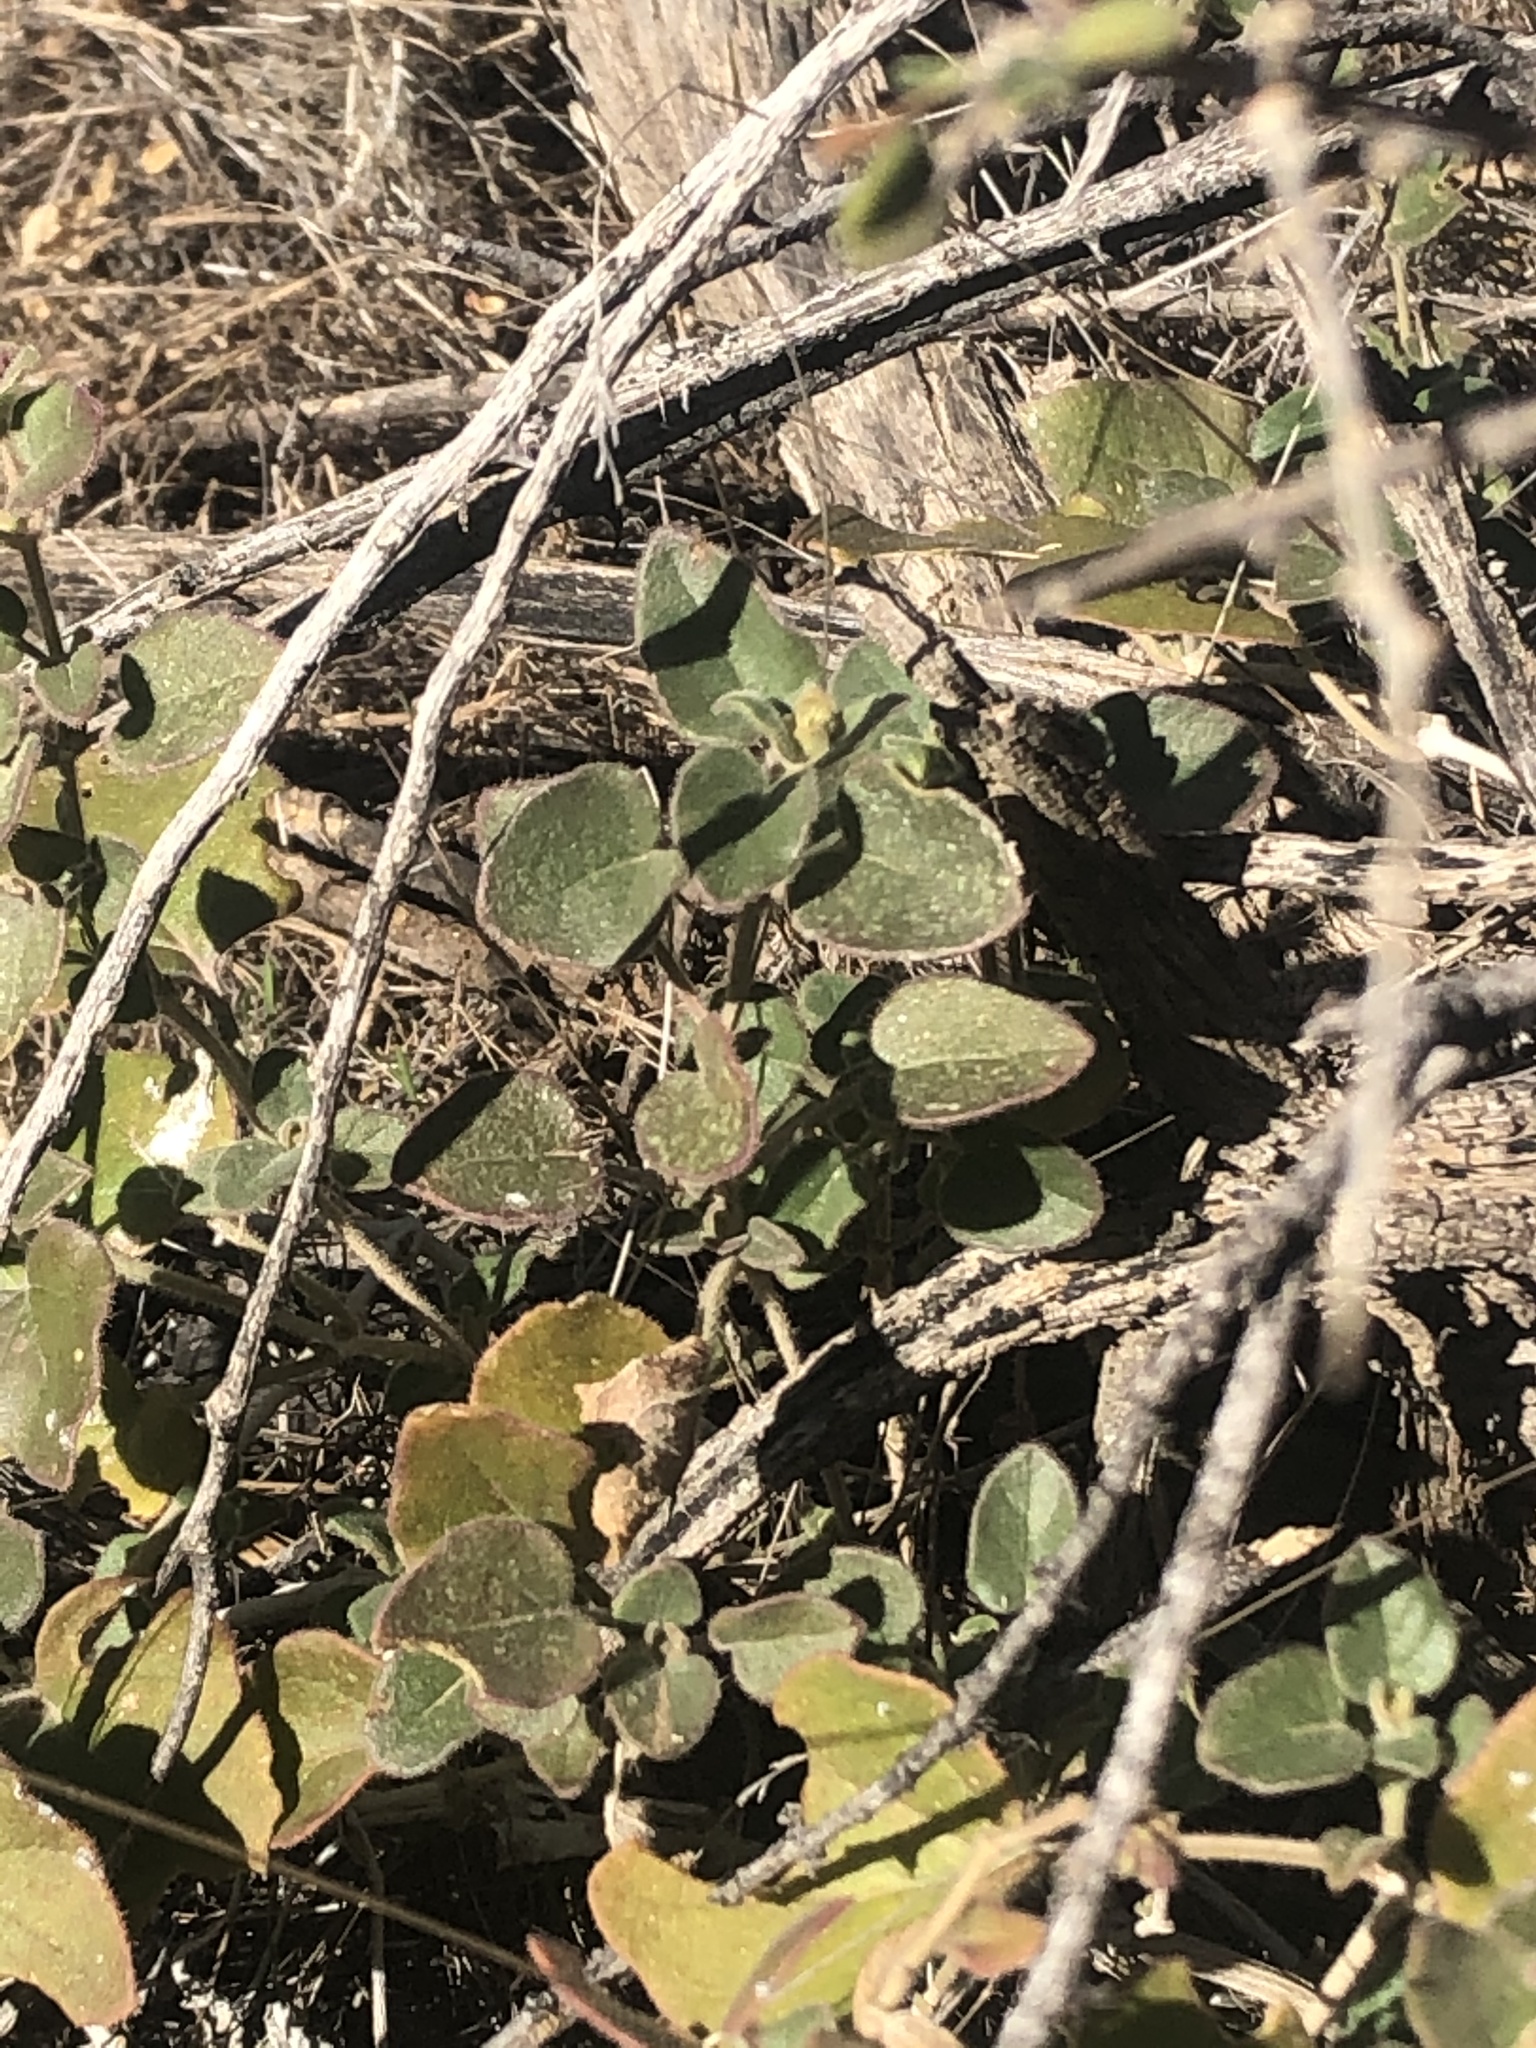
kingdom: Plantae
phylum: Tracheophyta
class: Magnoliopsida
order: Caryophyllales
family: Nyctaginaceae
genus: Mirabilis
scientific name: Mirabilis laevis
